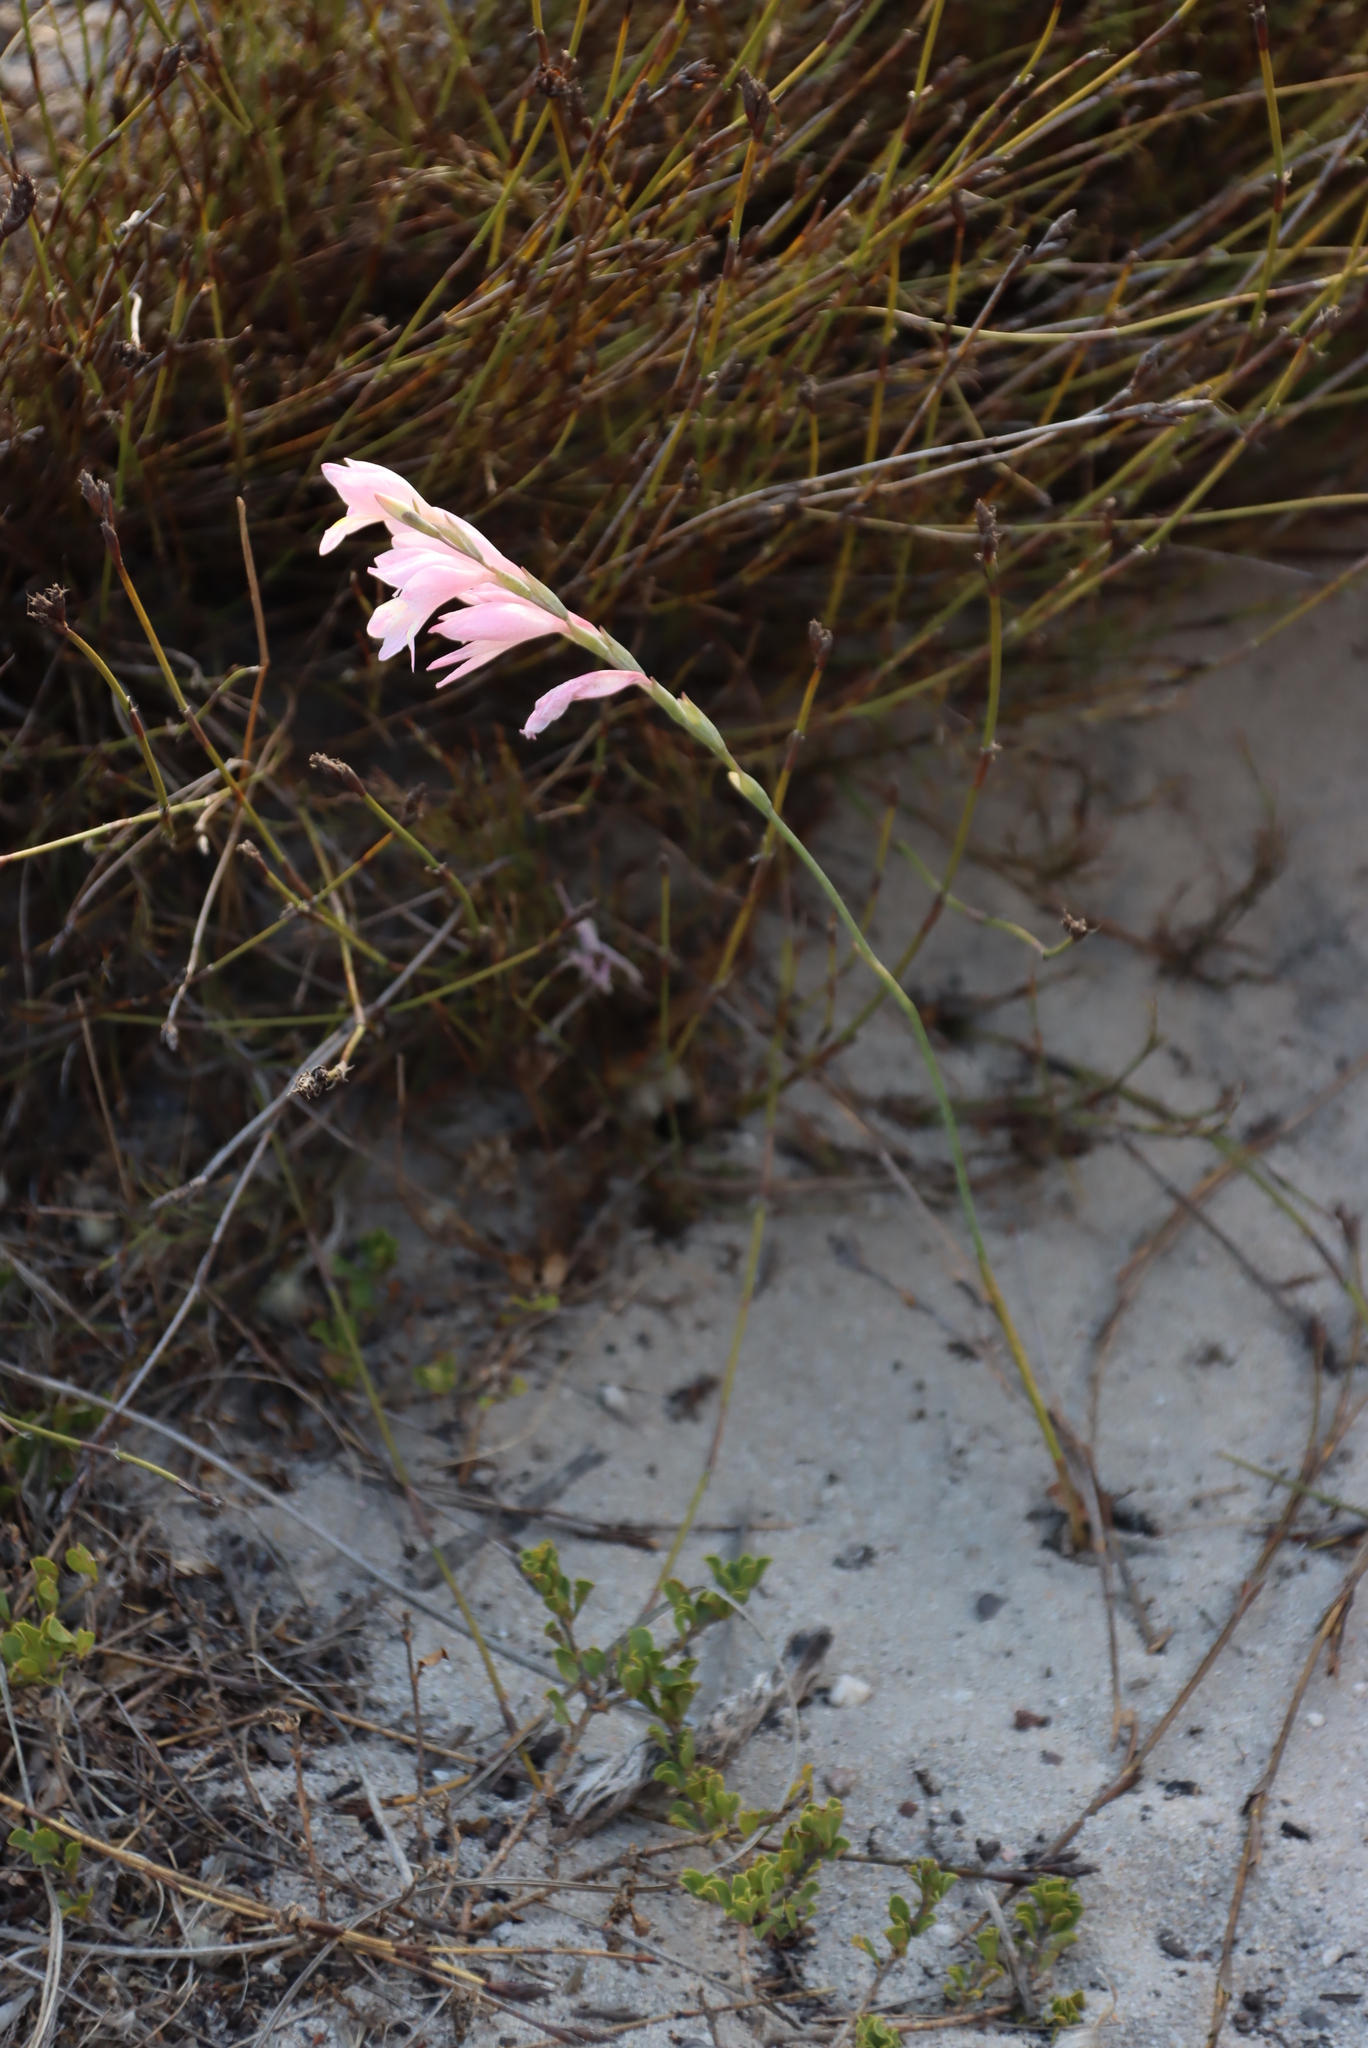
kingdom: Plantae
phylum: Tracheophyta
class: Liliopsida
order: Asparagales
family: Iridaceae
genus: Gladiolus
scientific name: Gladiolus brevifolius
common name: March pypie
